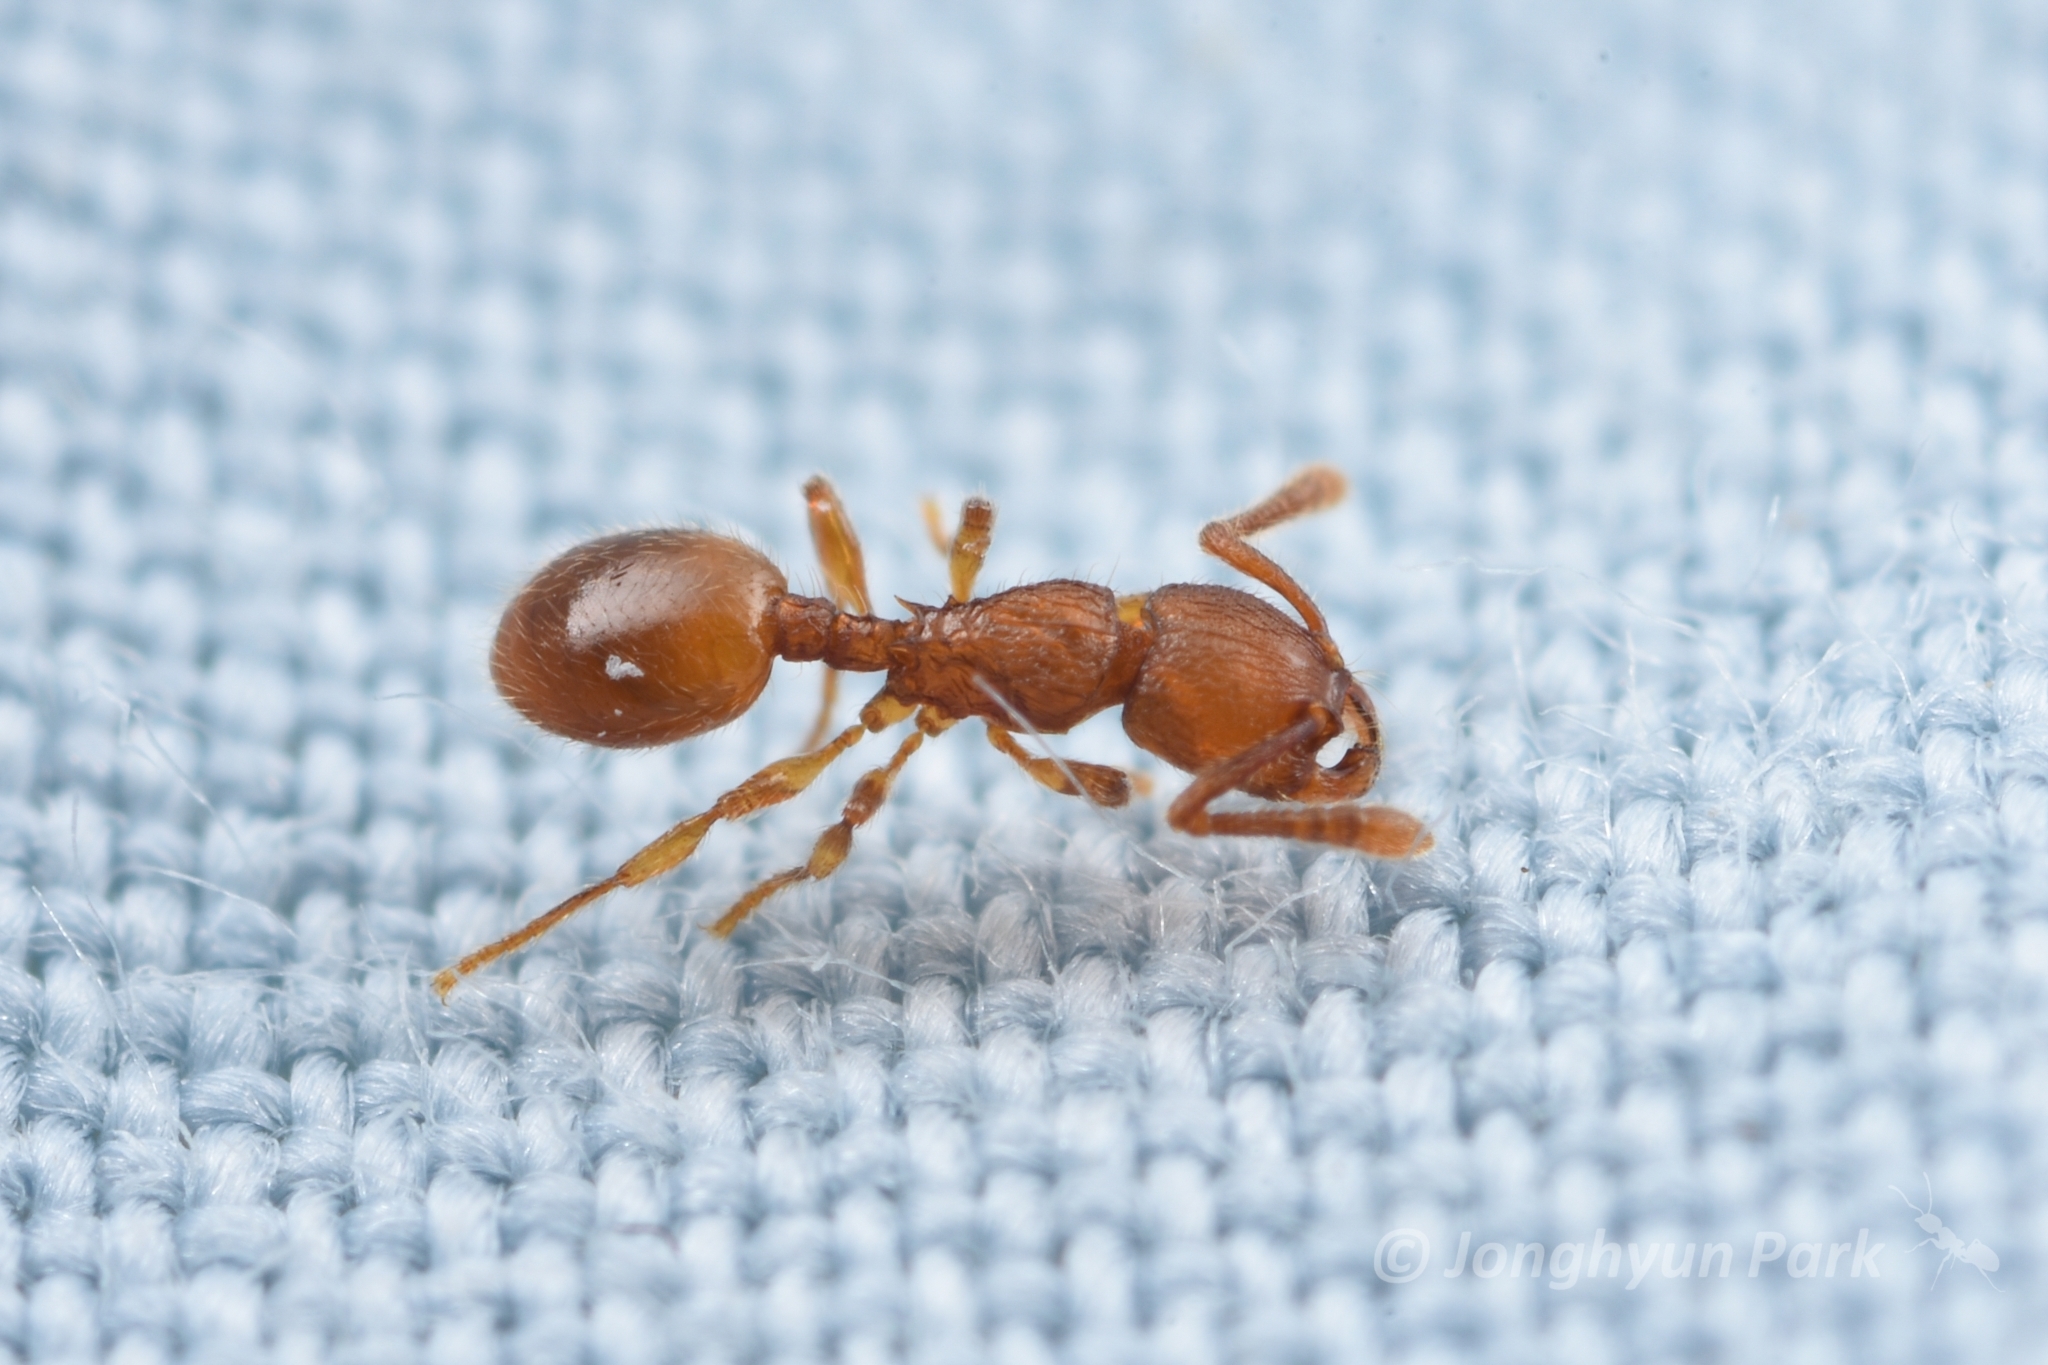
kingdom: Animalia
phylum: Arthropoda
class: Insecta
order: Hymenoptera
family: Formicidae
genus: Myrmecina
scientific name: Myrmecina flava
